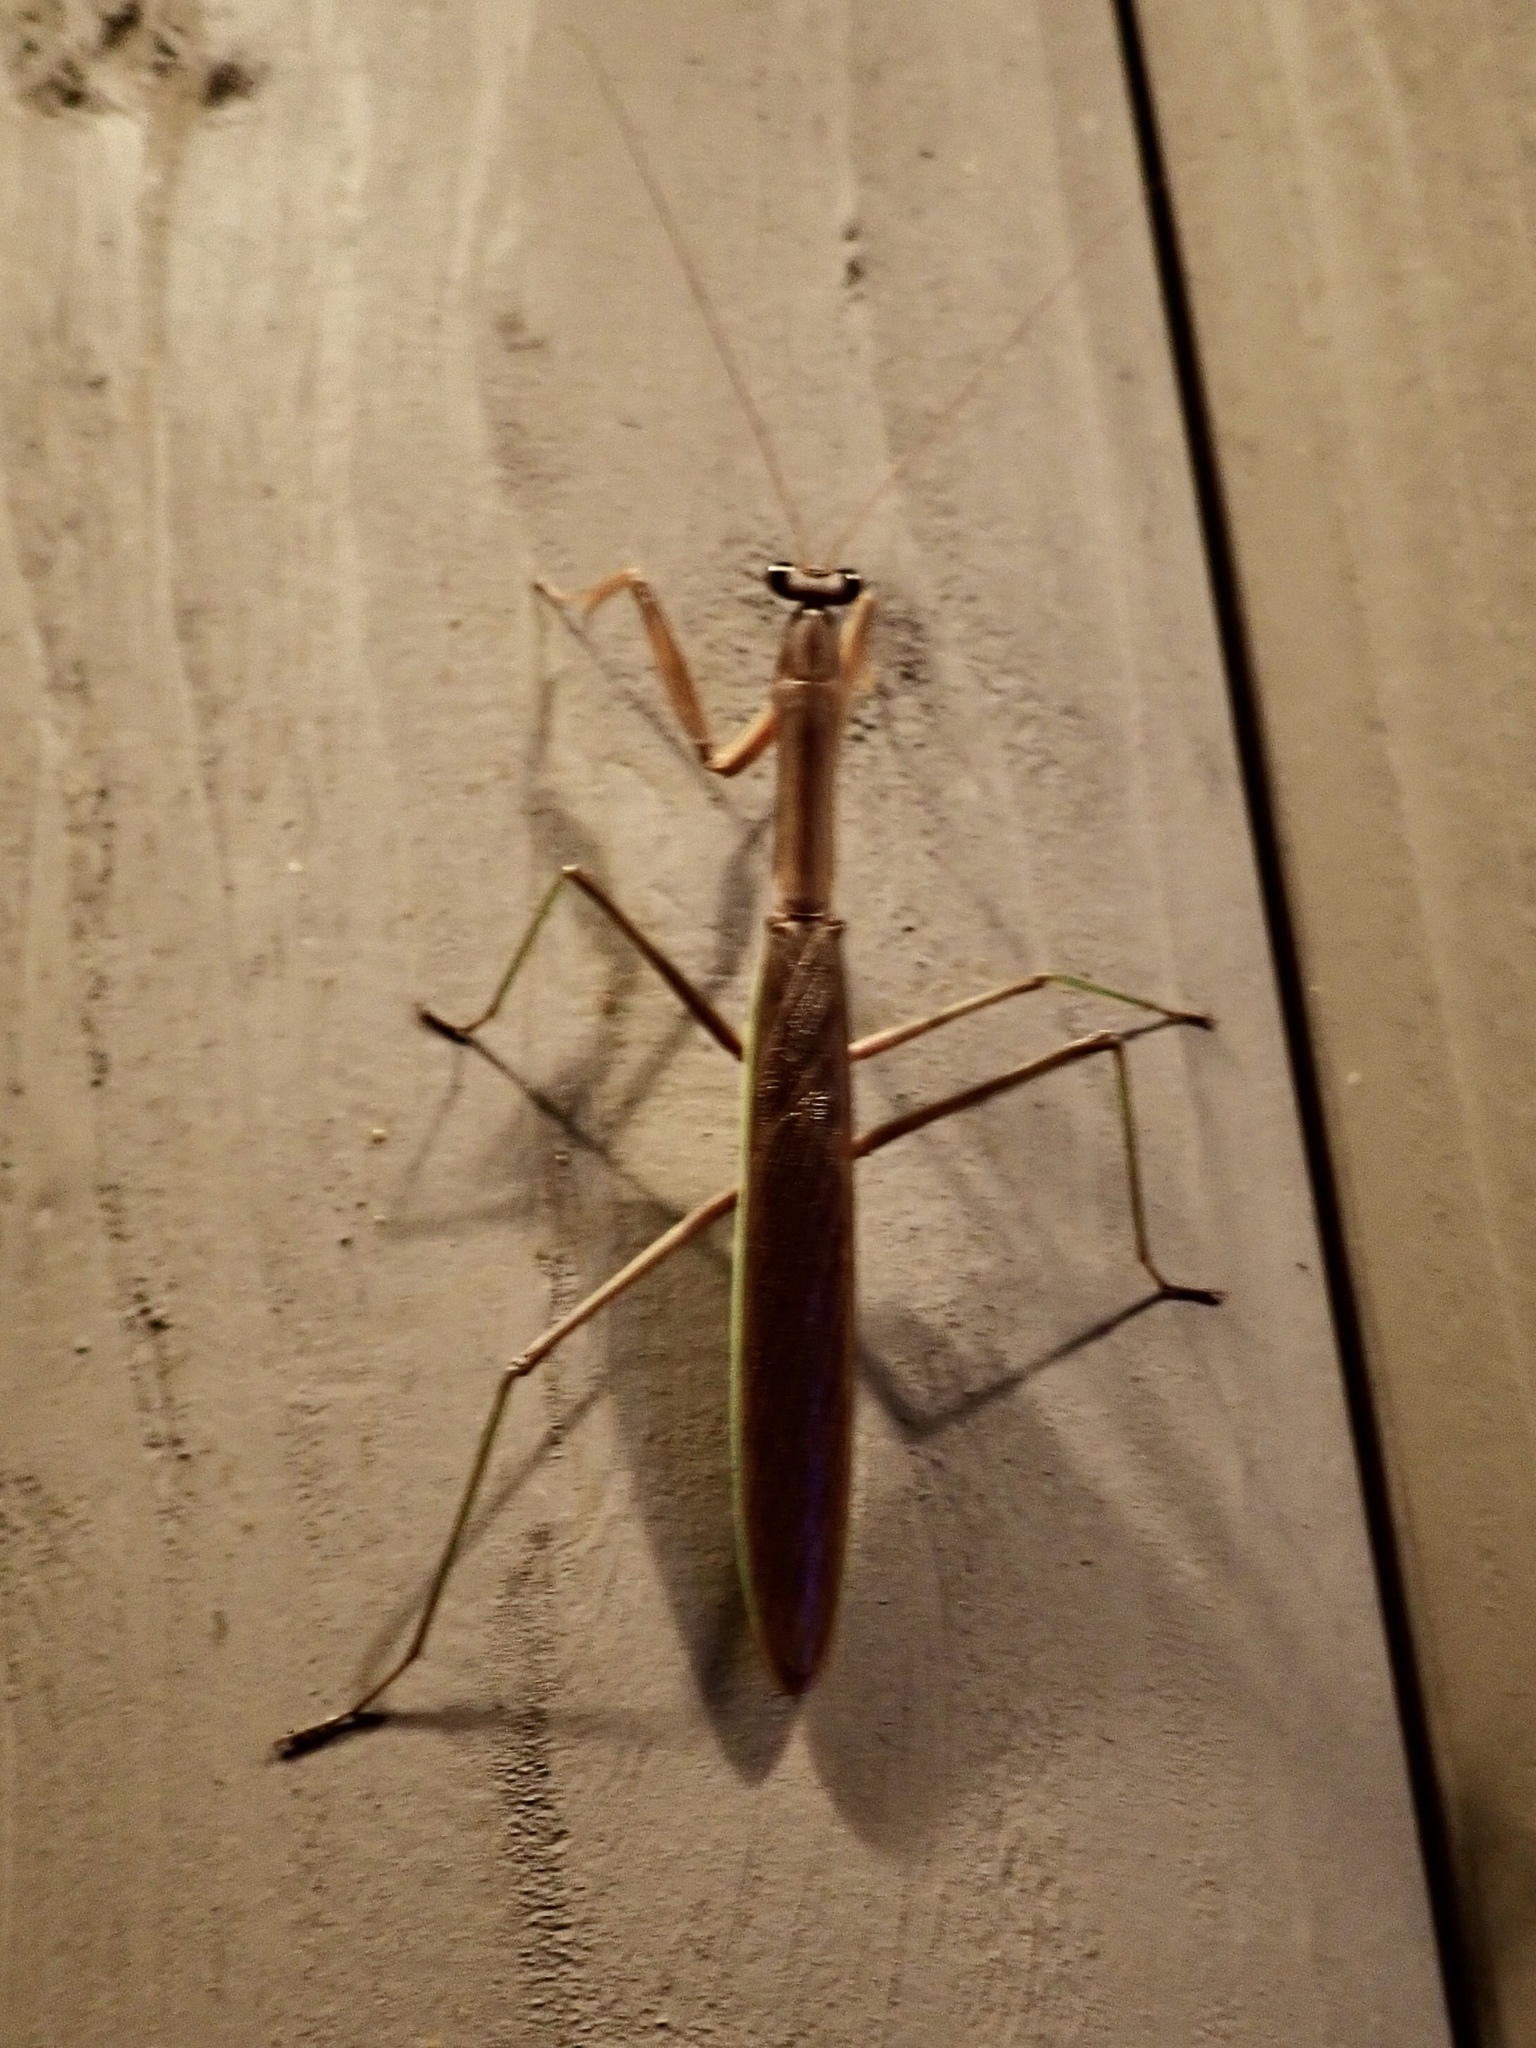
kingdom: Animalia
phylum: Arthropoda
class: Insecta
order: Mantodea
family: Mantidae
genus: Tenodera
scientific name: Tenodera sinensis
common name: Chinese mantis
